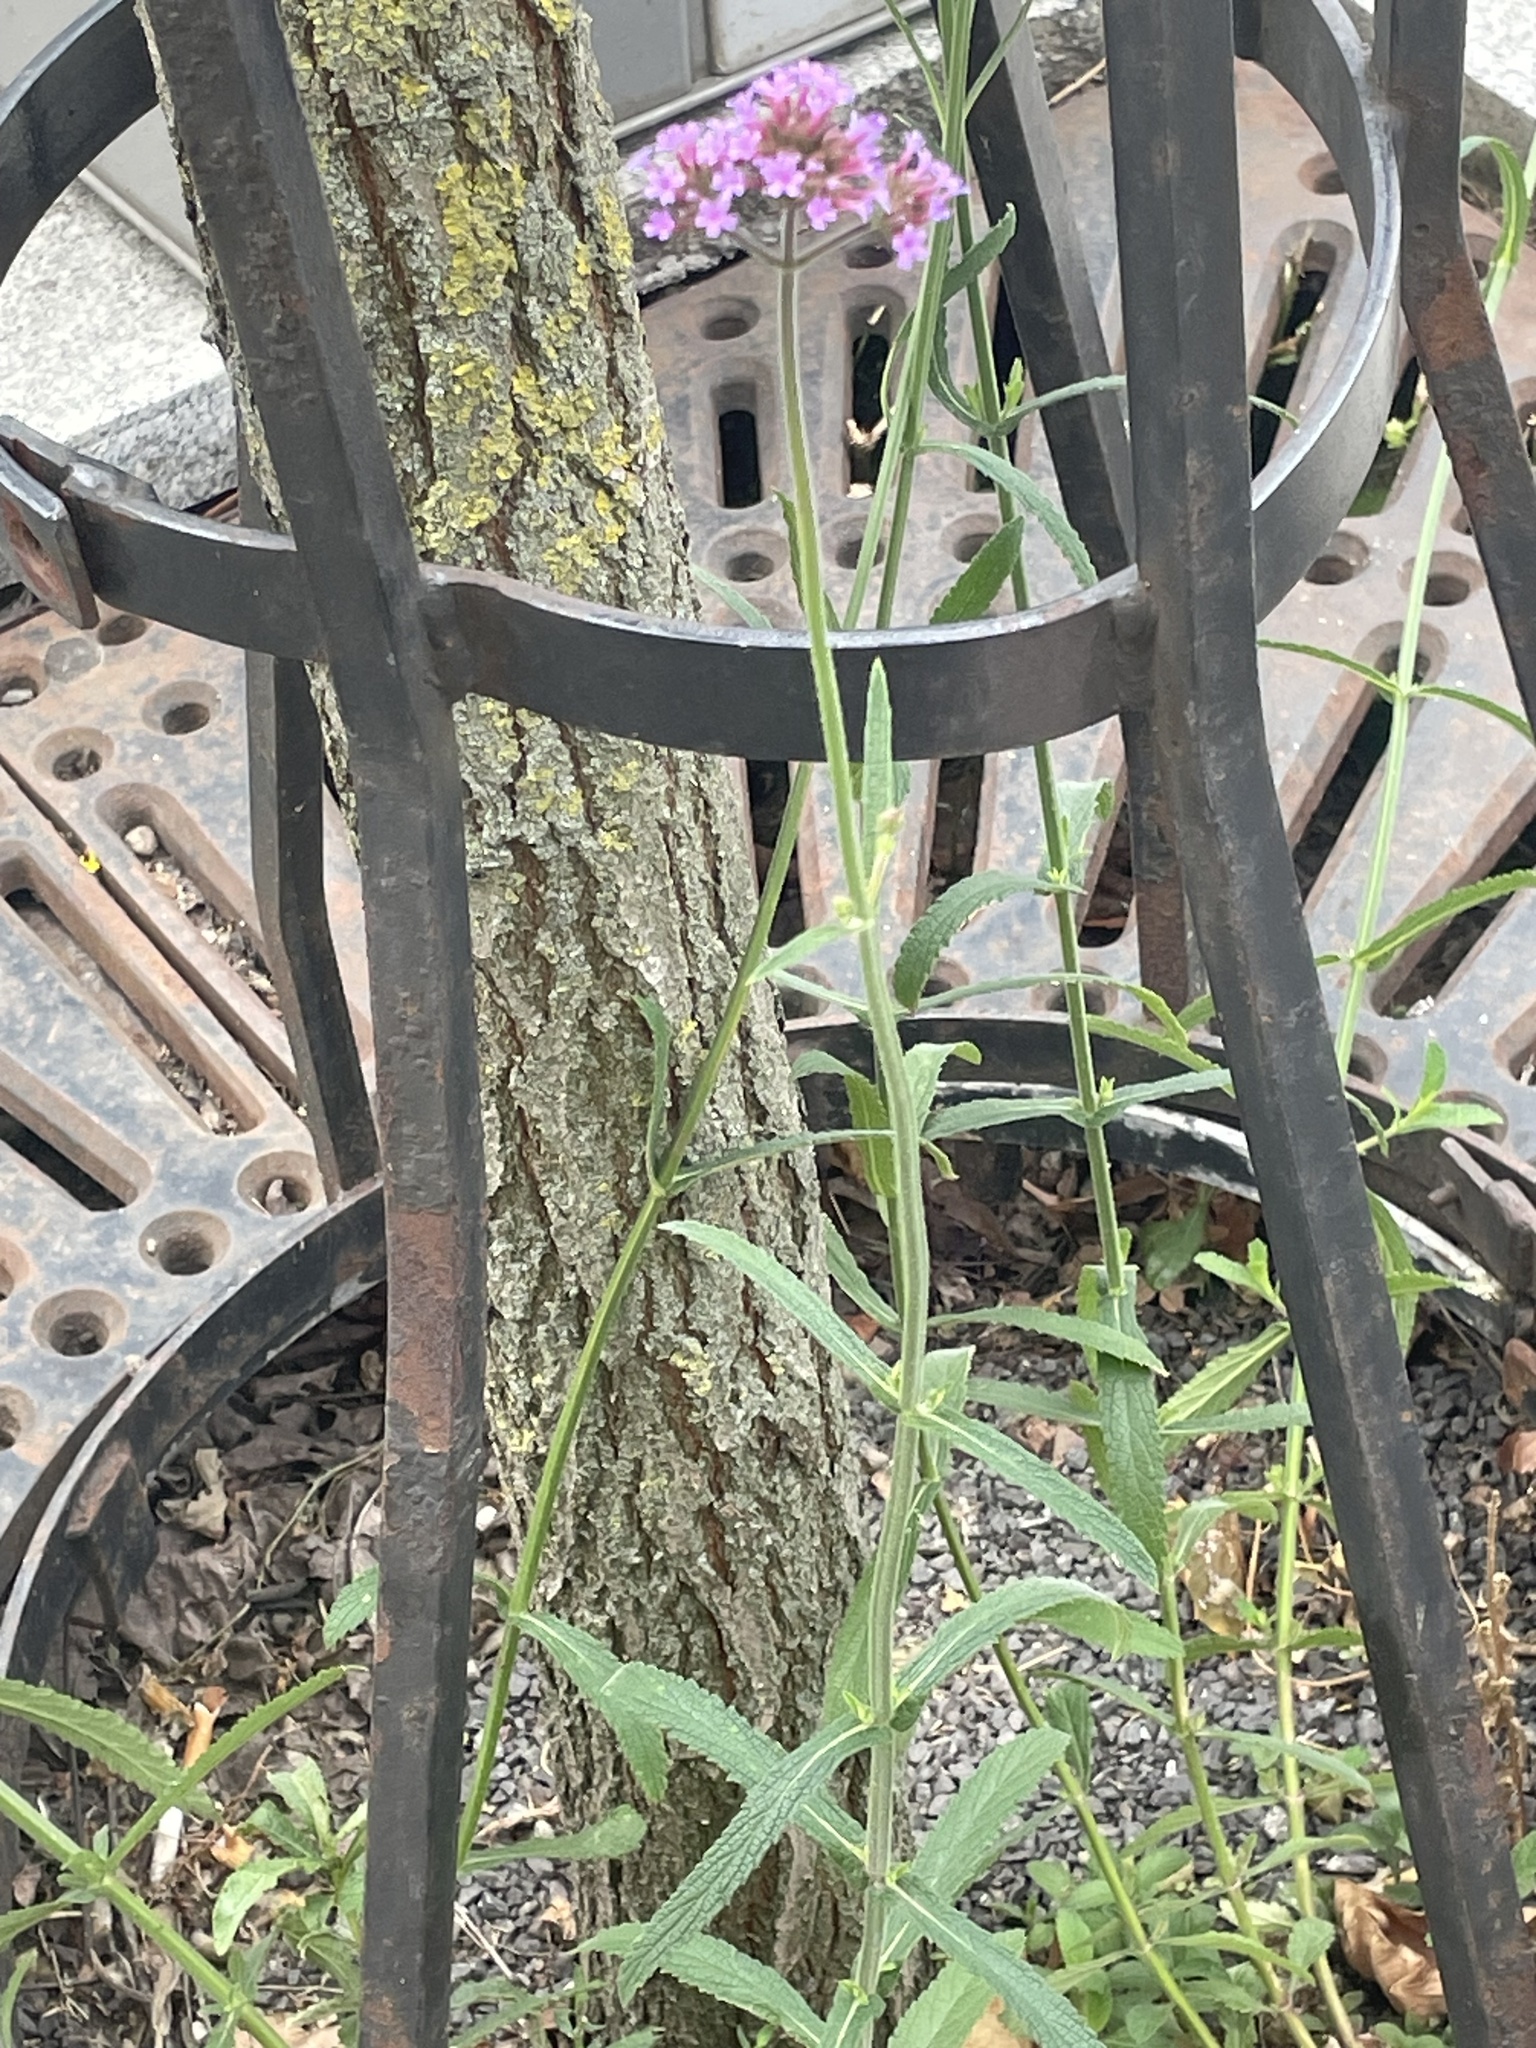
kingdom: Plantae
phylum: Tracheophyta
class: Magnoliopsida
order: Lamiales
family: Verbenaceae
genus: Verbena
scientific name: Verbena bonariensis
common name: Purpletop vervain
